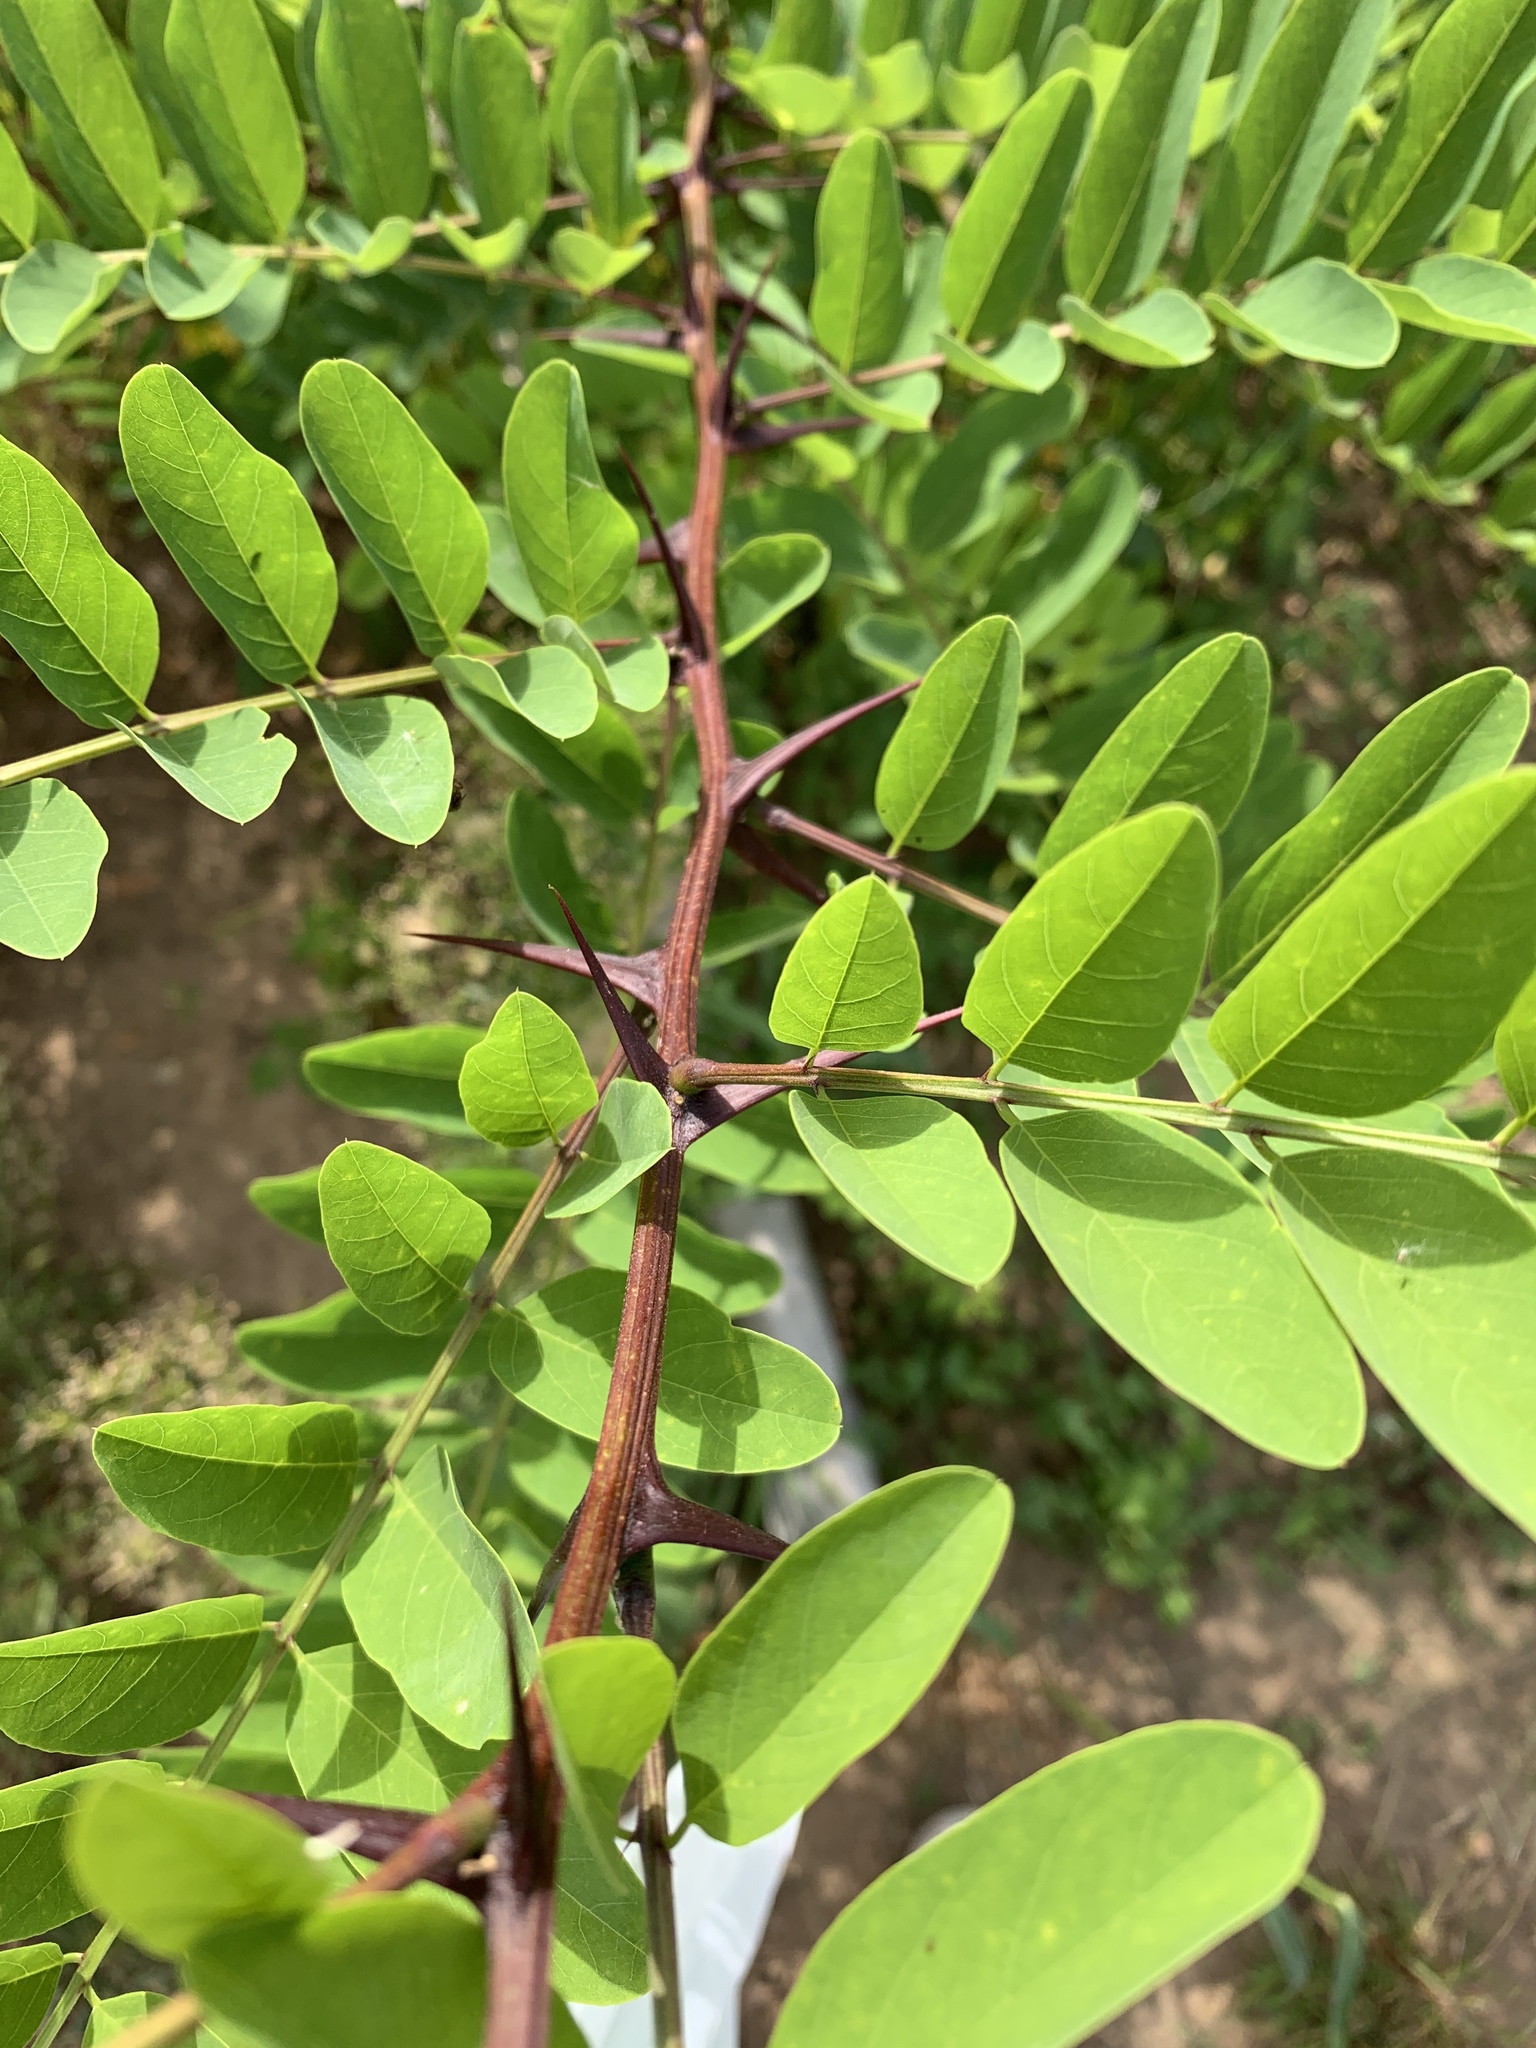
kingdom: Plantae
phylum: Tracheophyta
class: Magnoliopsida
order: Fabales
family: Fabaceae
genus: Robinia
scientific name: Robinia pseudoacacia
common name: Black locust
